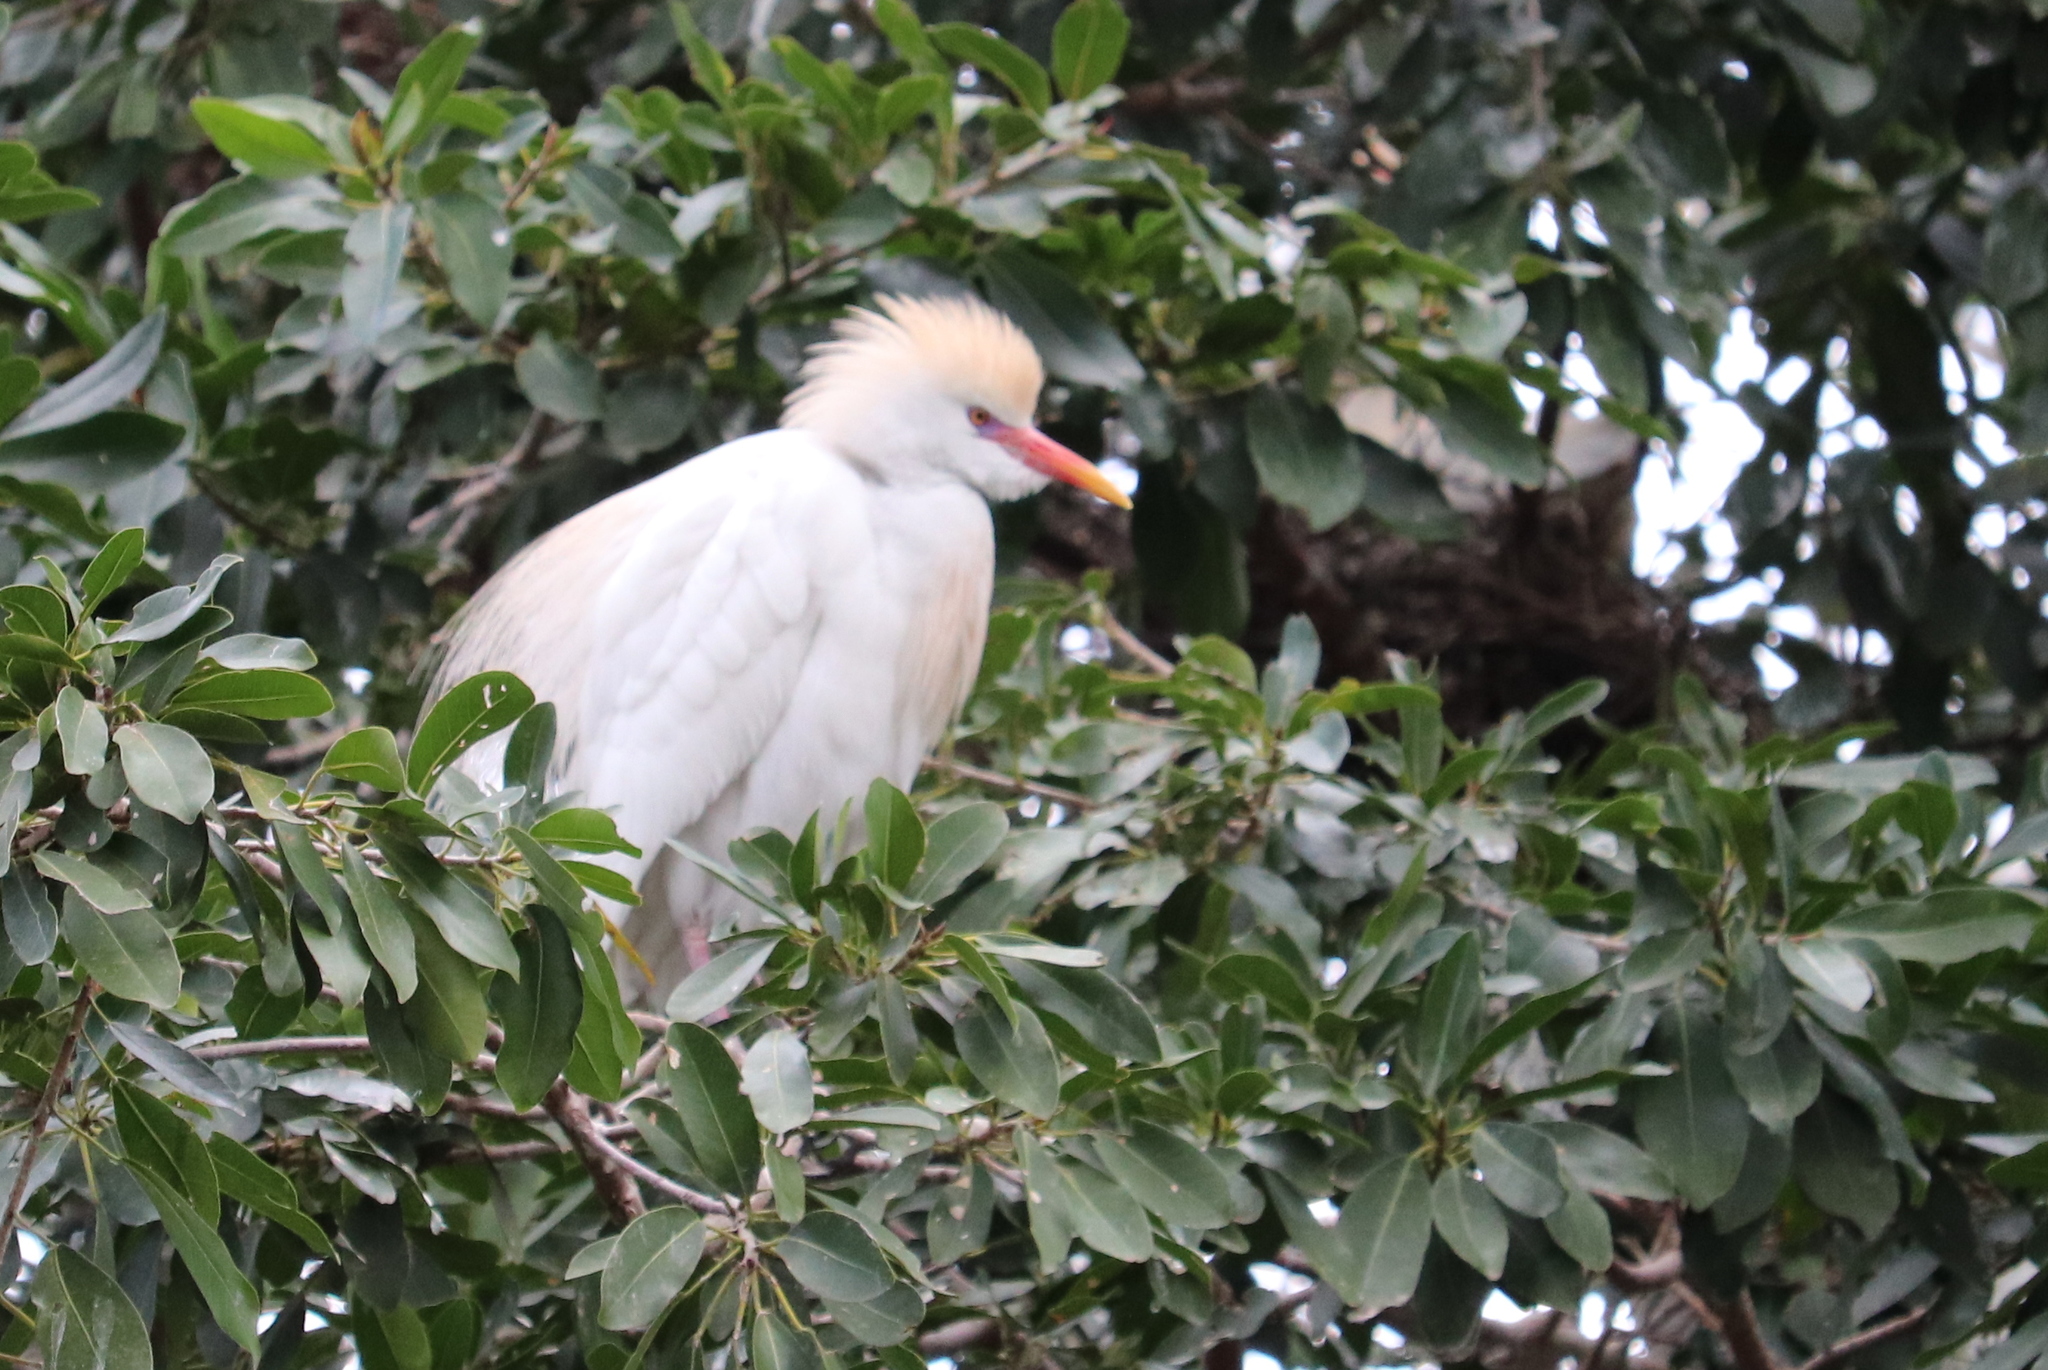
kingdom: Animalia
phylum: Chordata
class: Aves
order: Pelecaniformes
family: Ardeidae
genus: Bubulcus
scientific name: Bubulcus ibis
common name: Cattle egret
